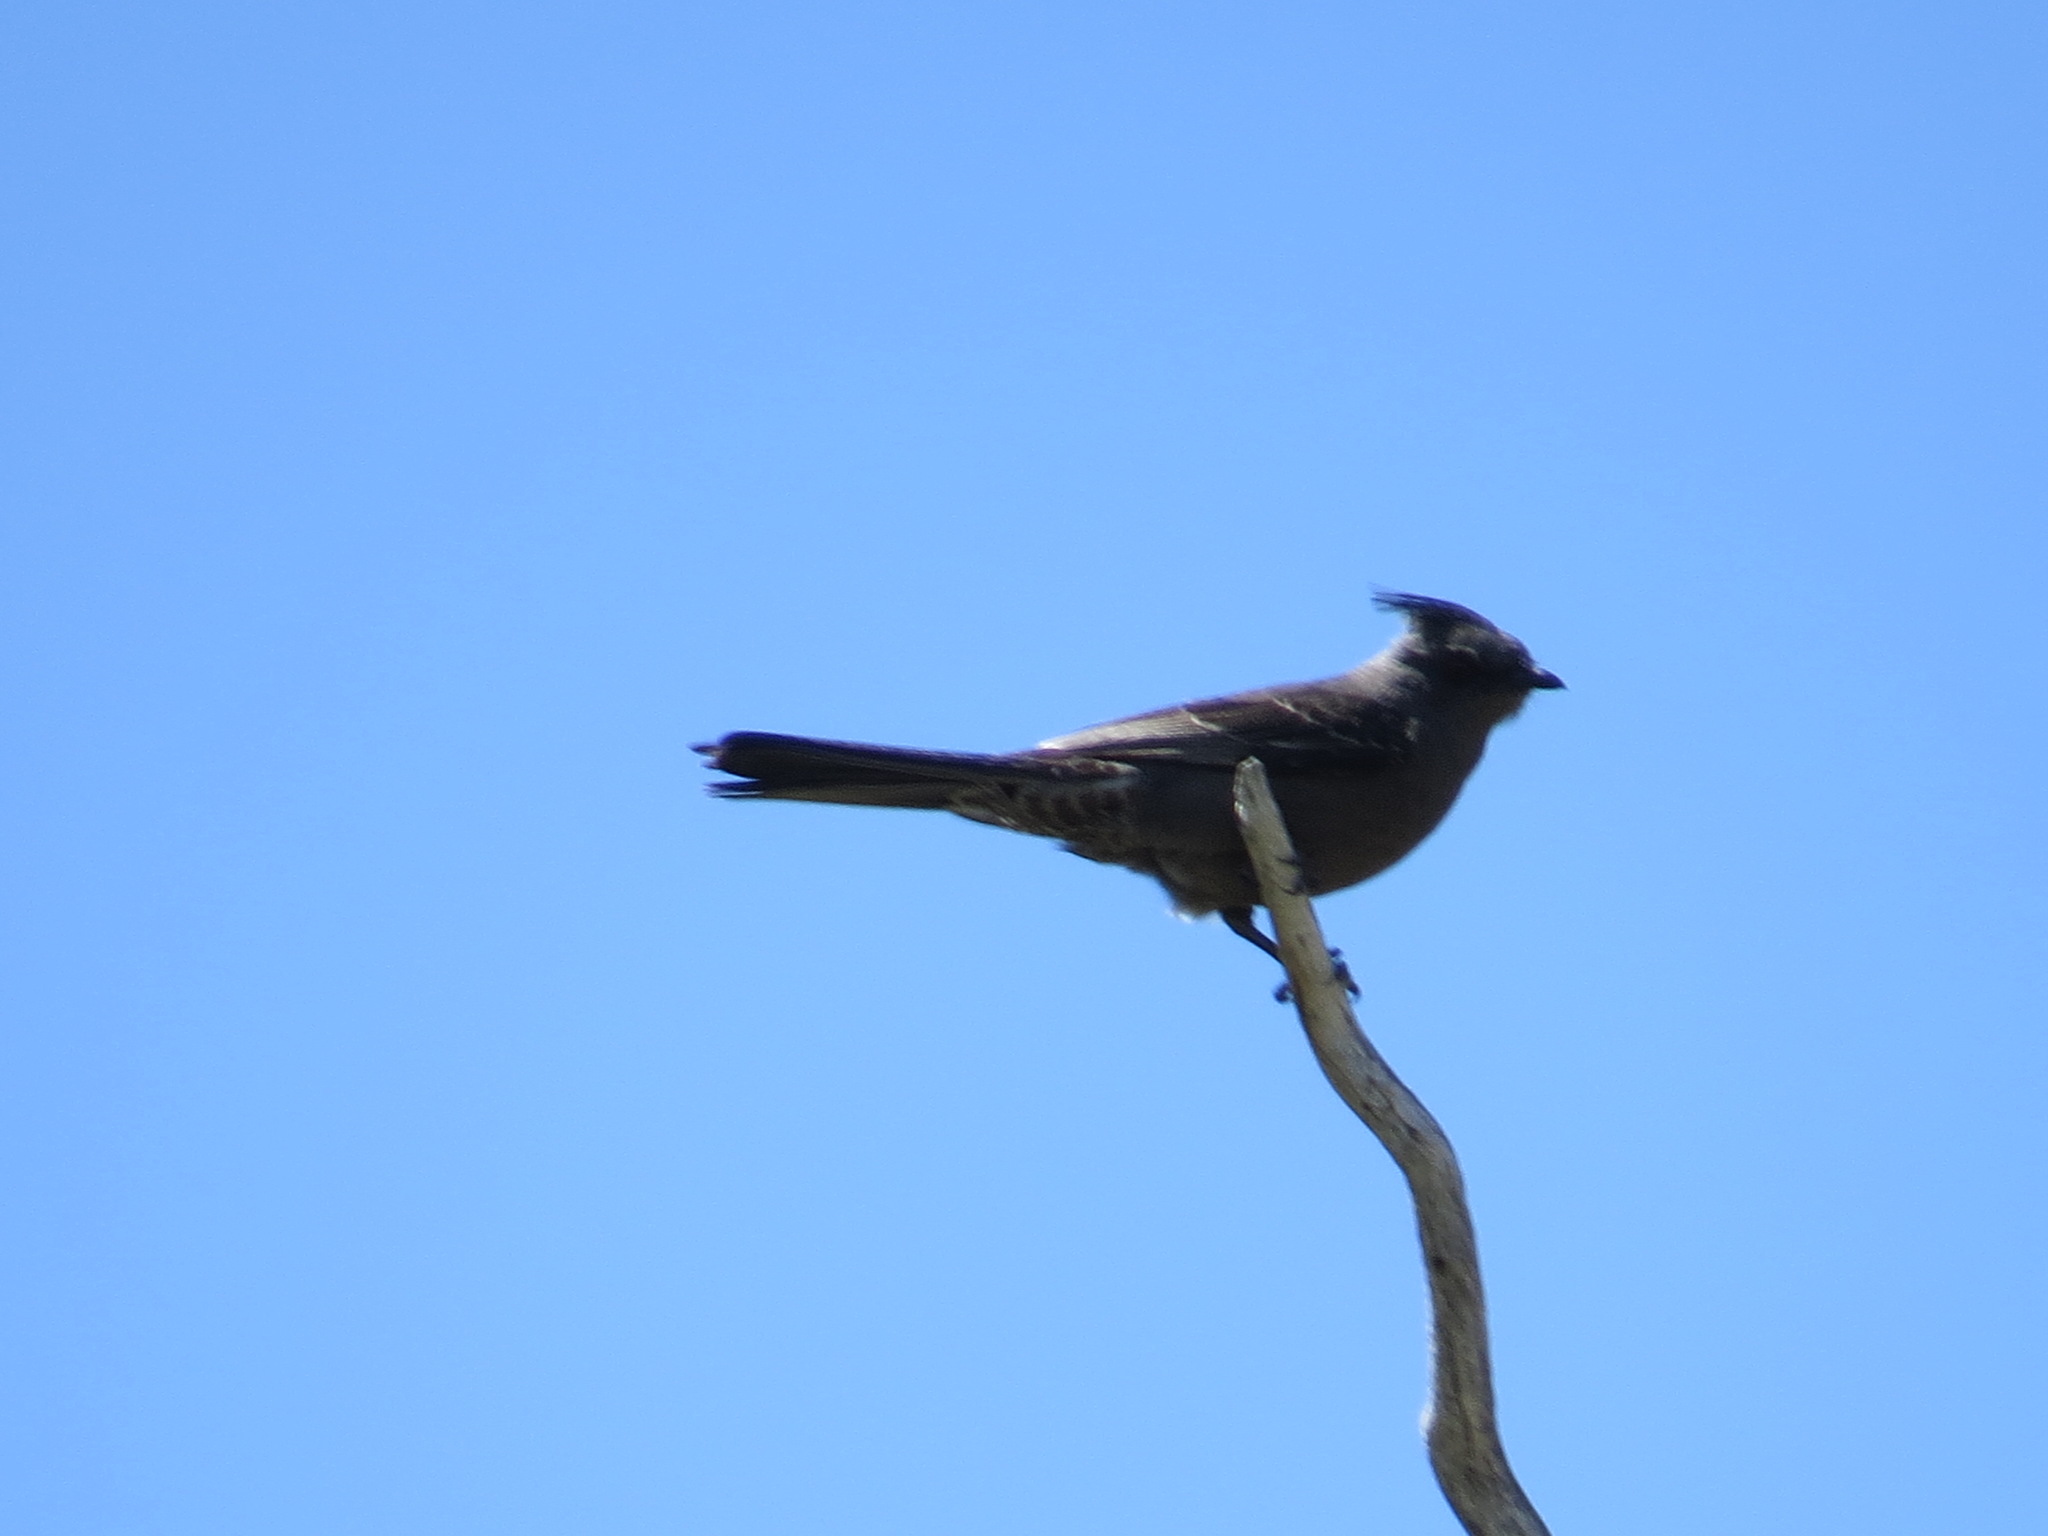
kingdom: Animalia
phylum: Chordata
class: Aves
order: Passeriformes
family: Ptilogonatidae
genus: Phainopepla
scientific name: Phainopepla nitens
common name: Phainopepla
